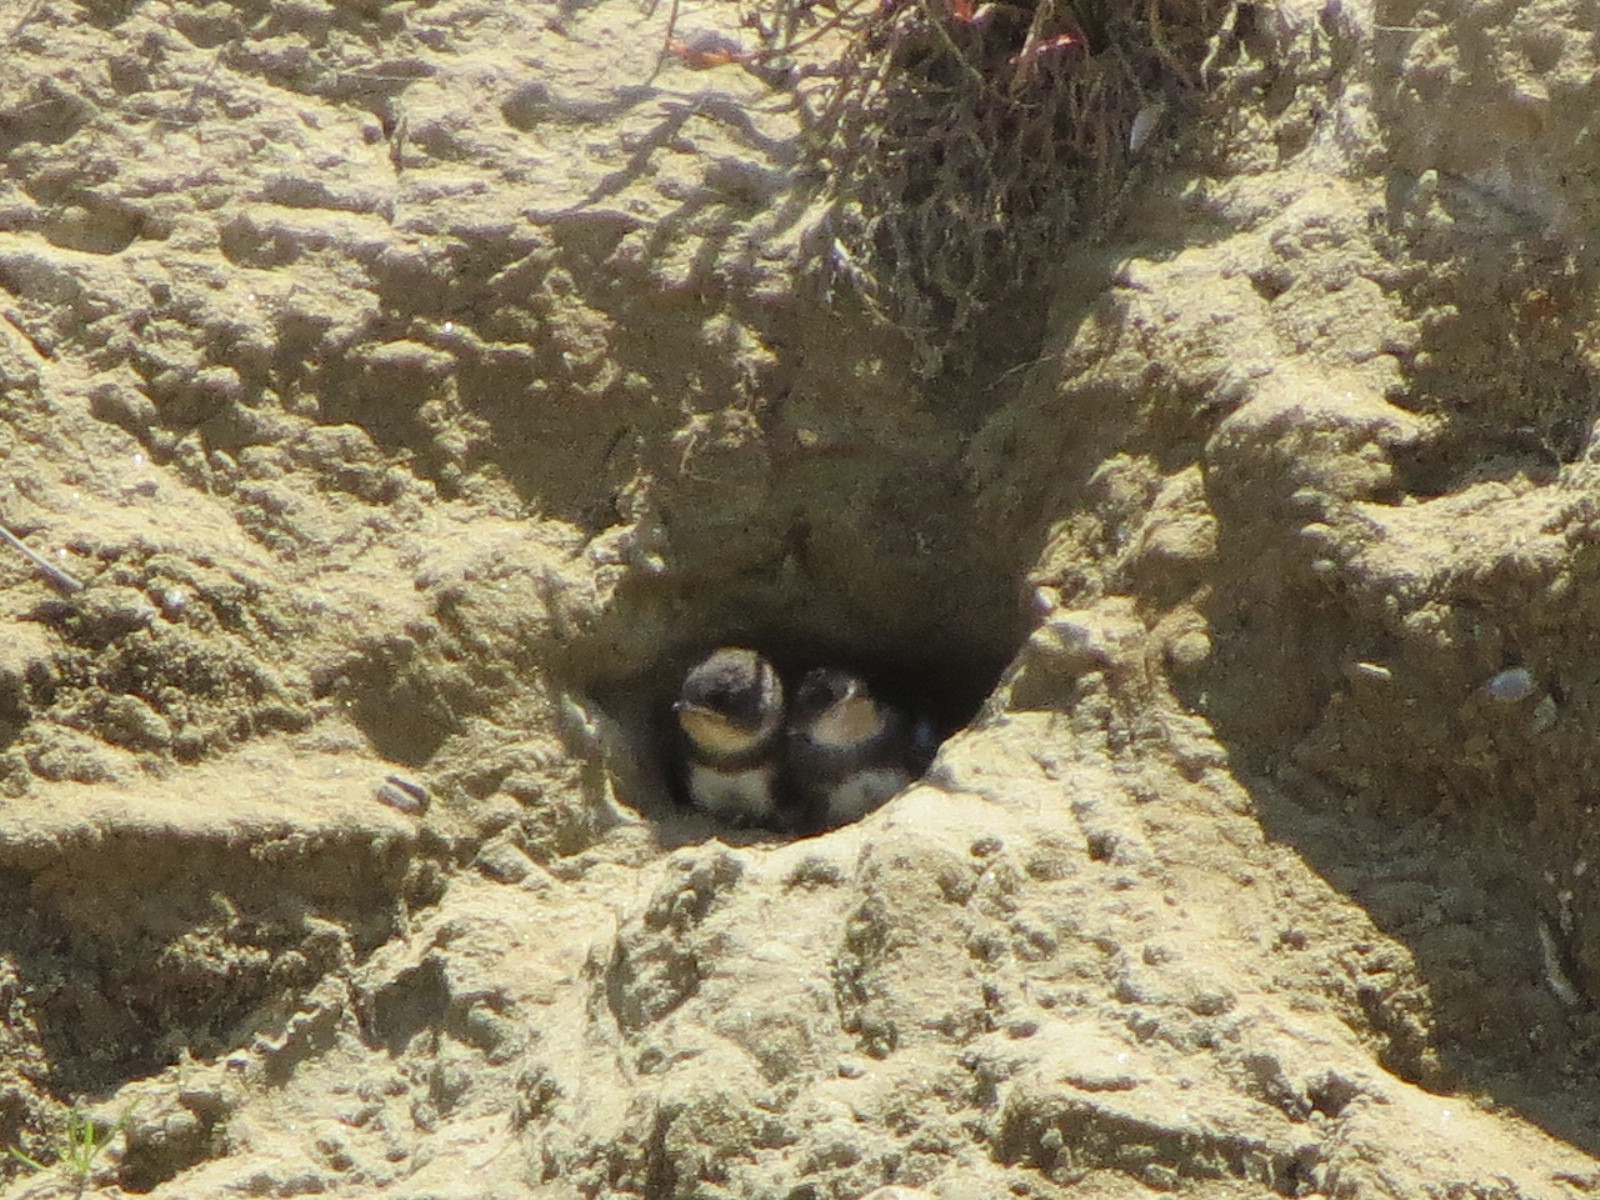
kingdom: Animalia
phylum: Chordata
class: Aves
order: Passeriformes
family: Hirundinidae
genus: Riparia
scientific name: Riparia riparia
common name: Sand martin
